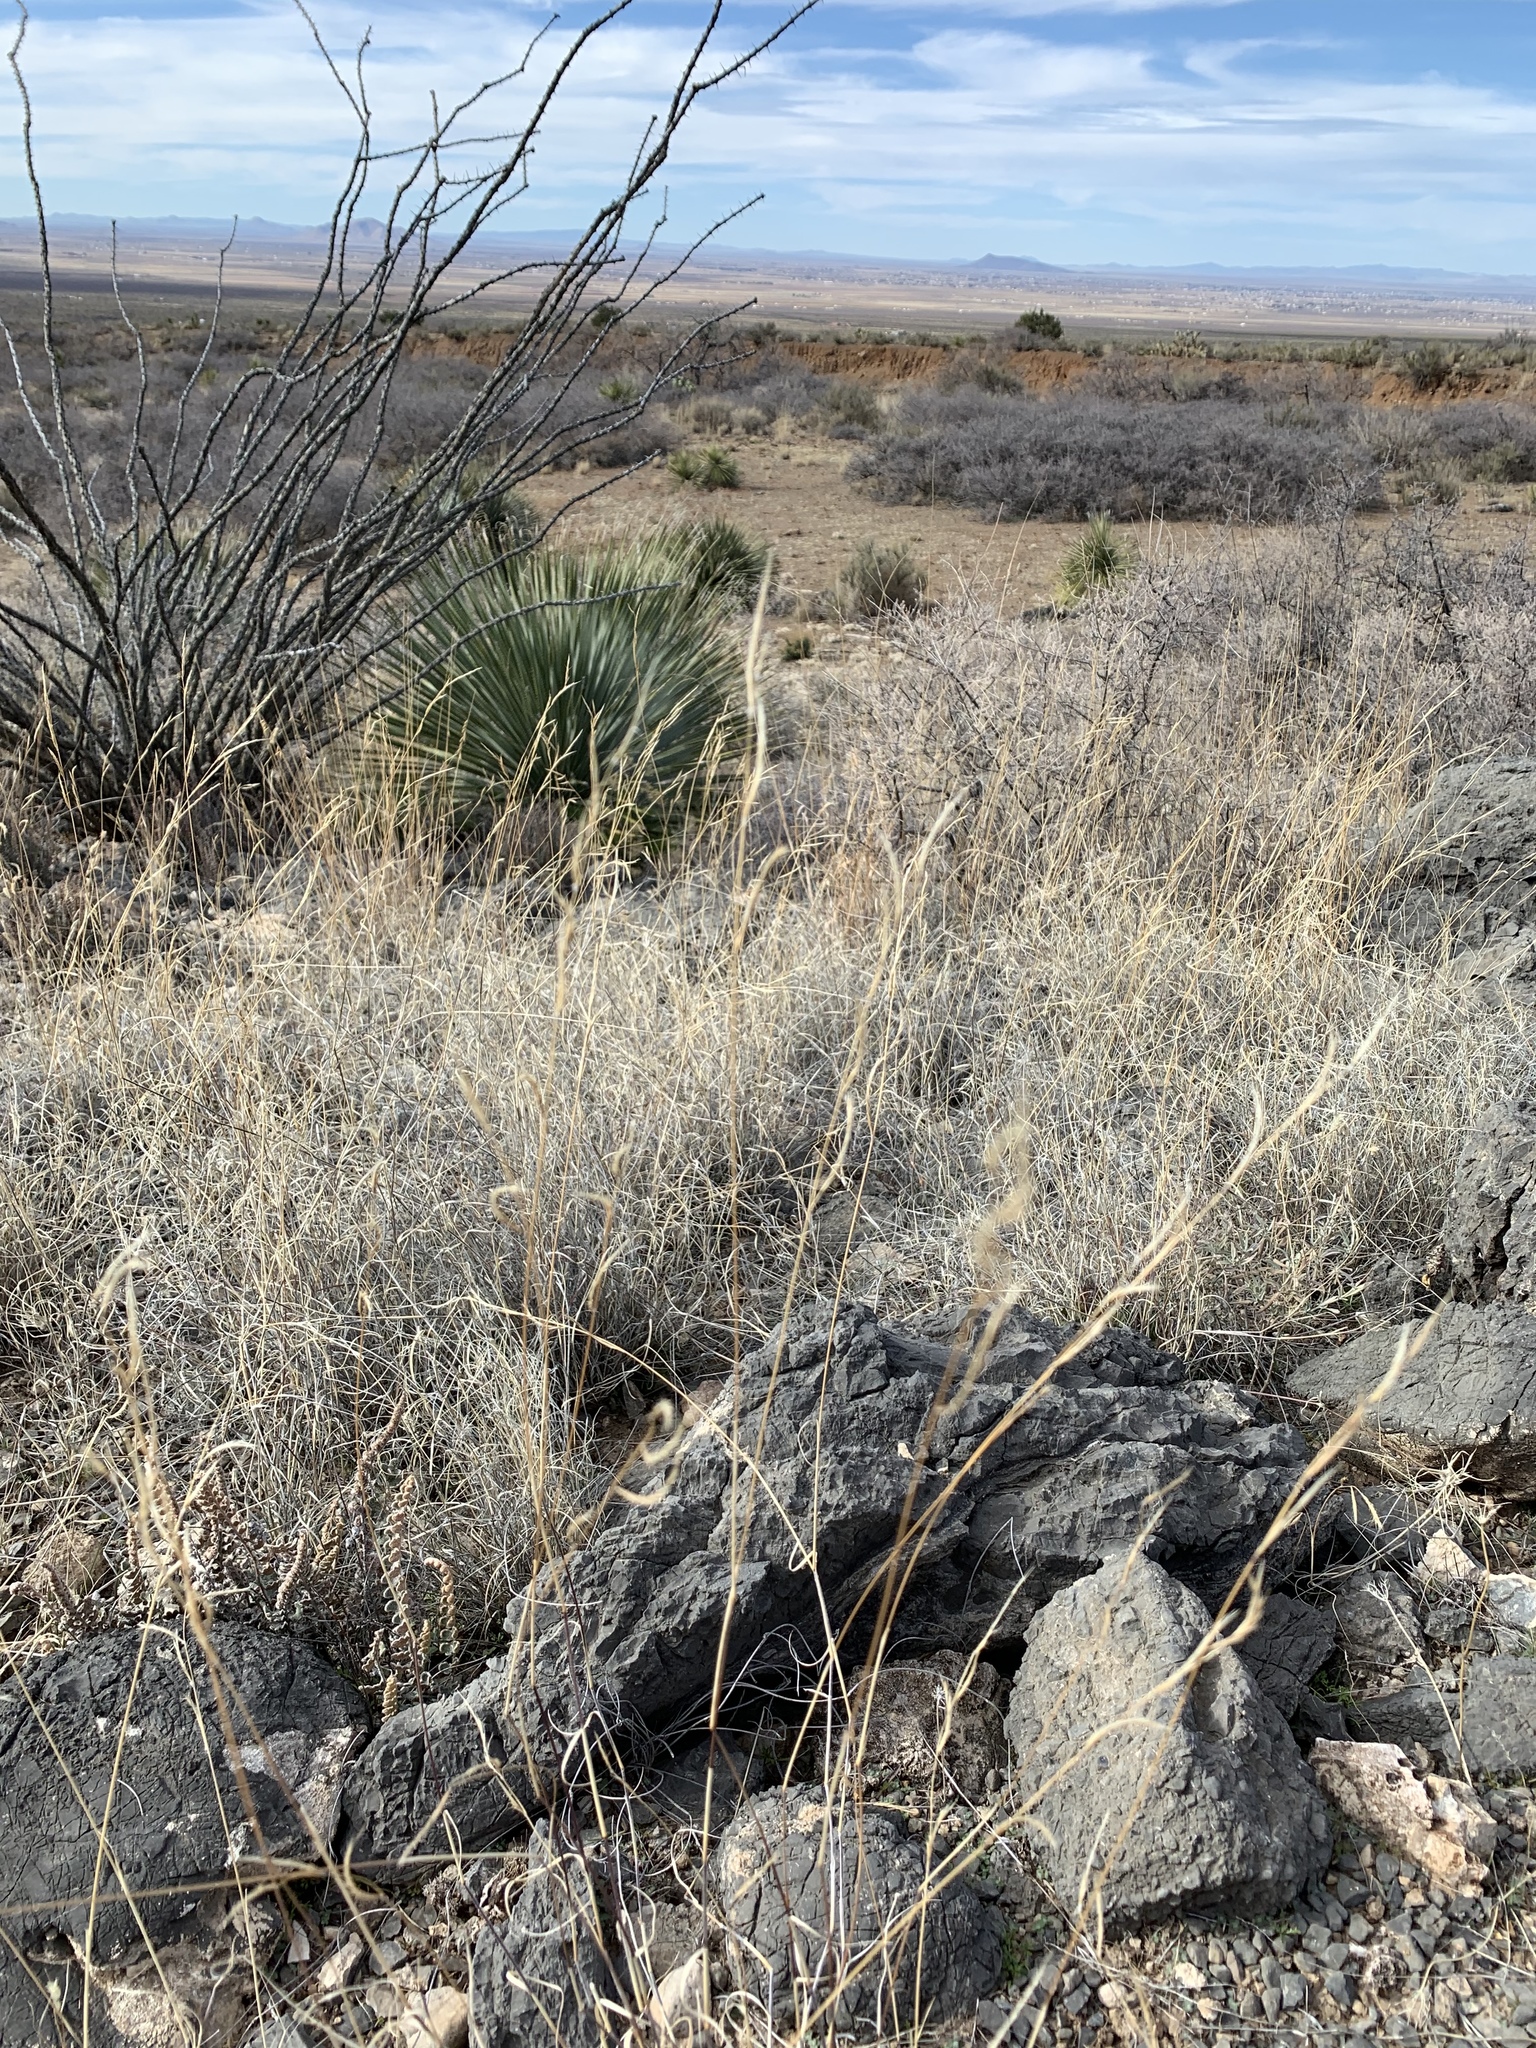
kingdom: Plantae
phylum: Tracheophyta
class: Liliopsida
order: Poales
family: Poaceae
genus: Bouteloua
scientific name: Bouteloua eriopoda
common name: Woolly foot grama
